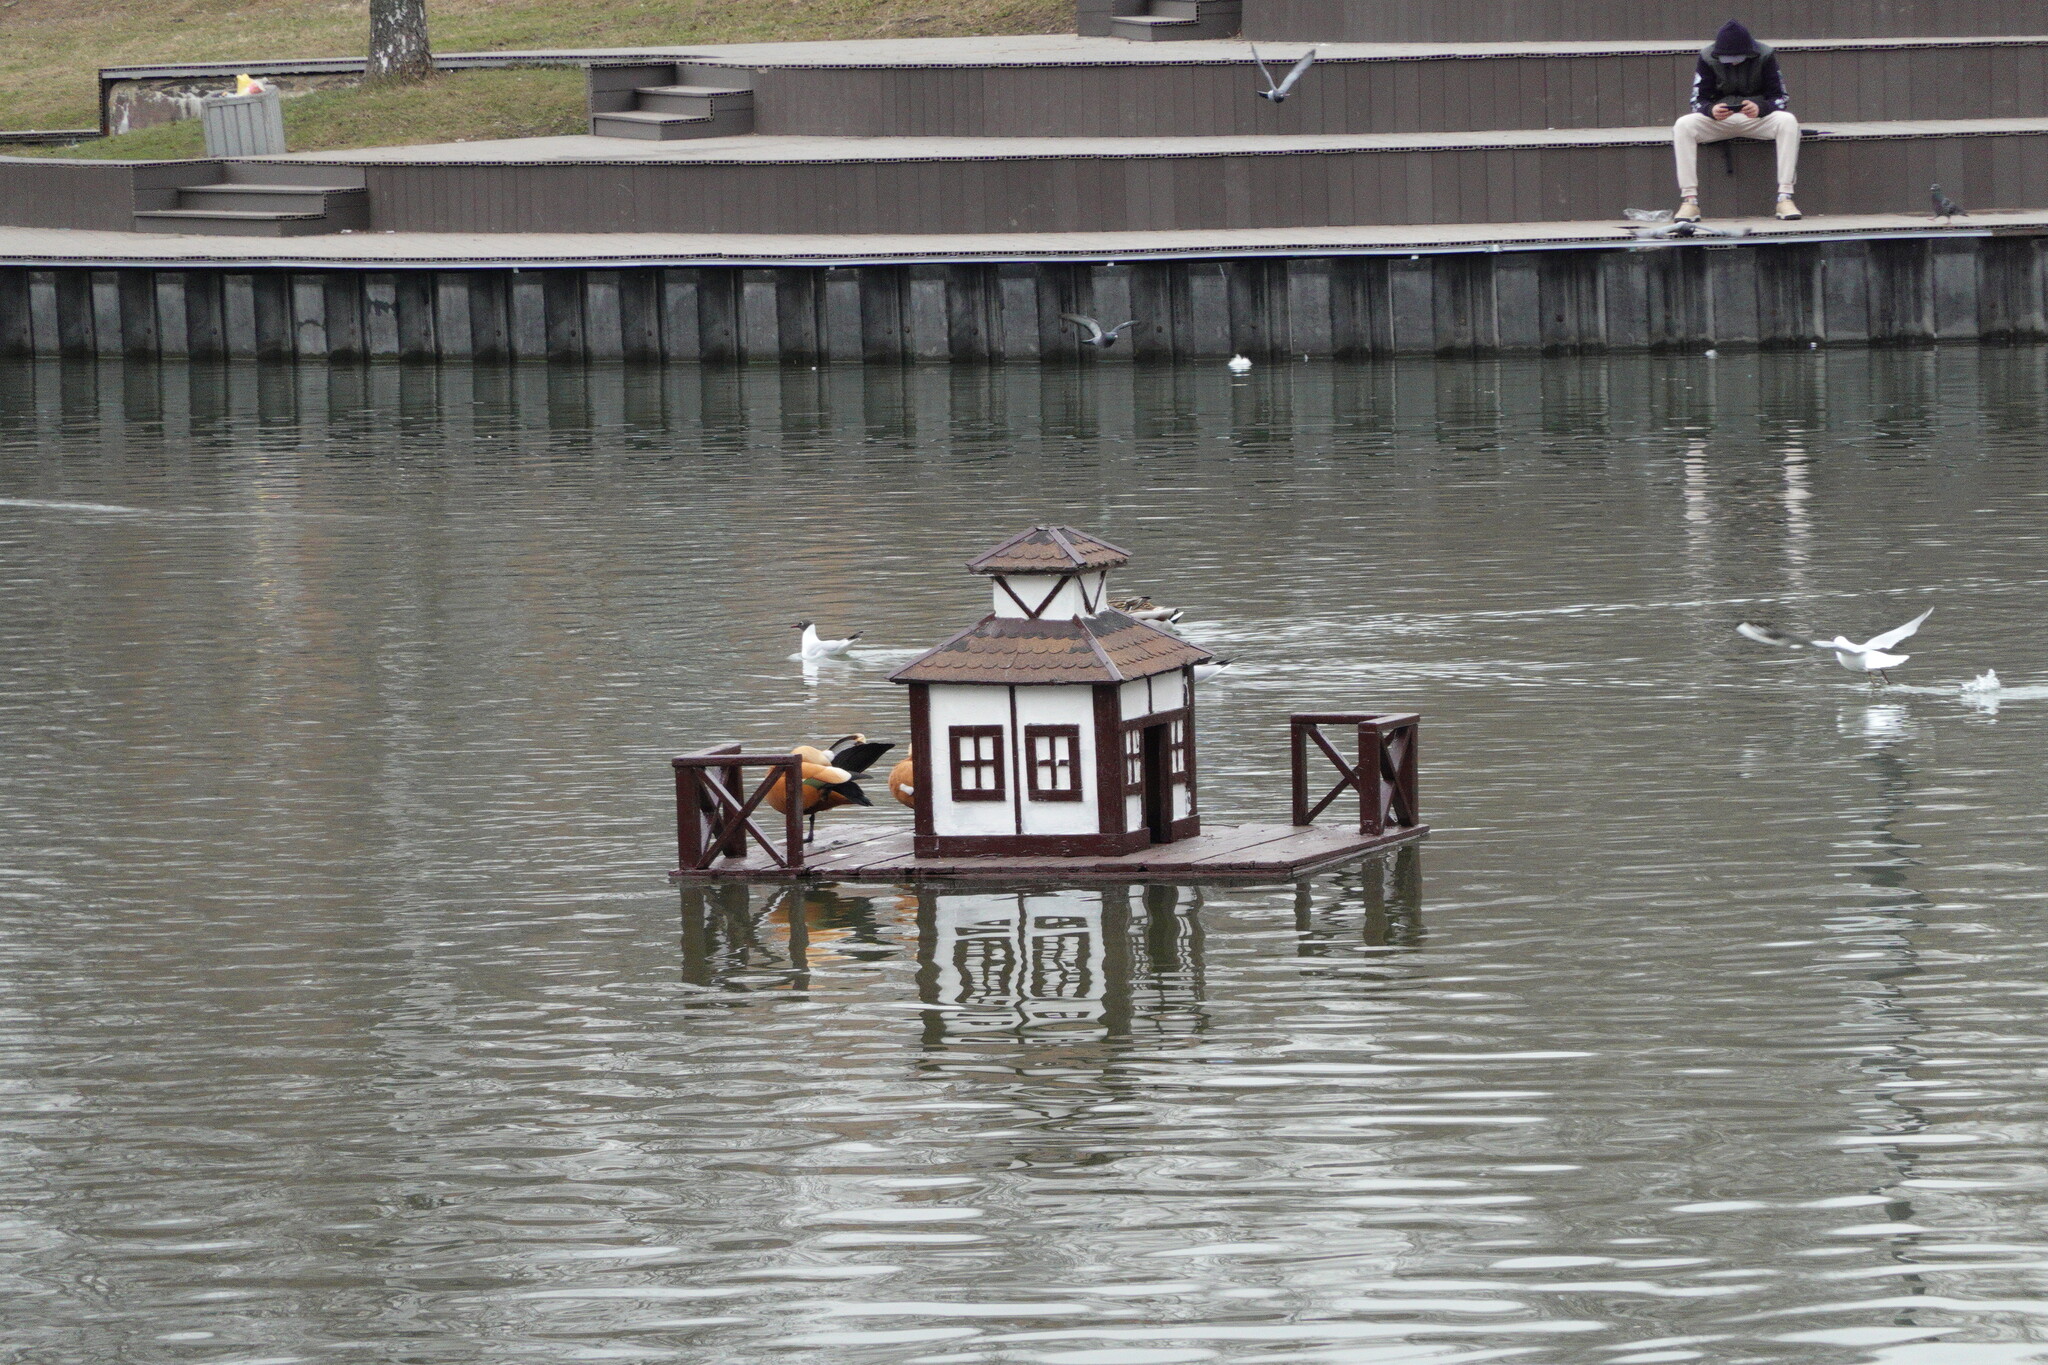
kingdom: Animalia
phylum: Chordata
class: Aves
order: Anseriformes
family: Anatidae
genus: Tadorna
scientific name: Tadorna ferruginea
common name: Ruddy shelduck
